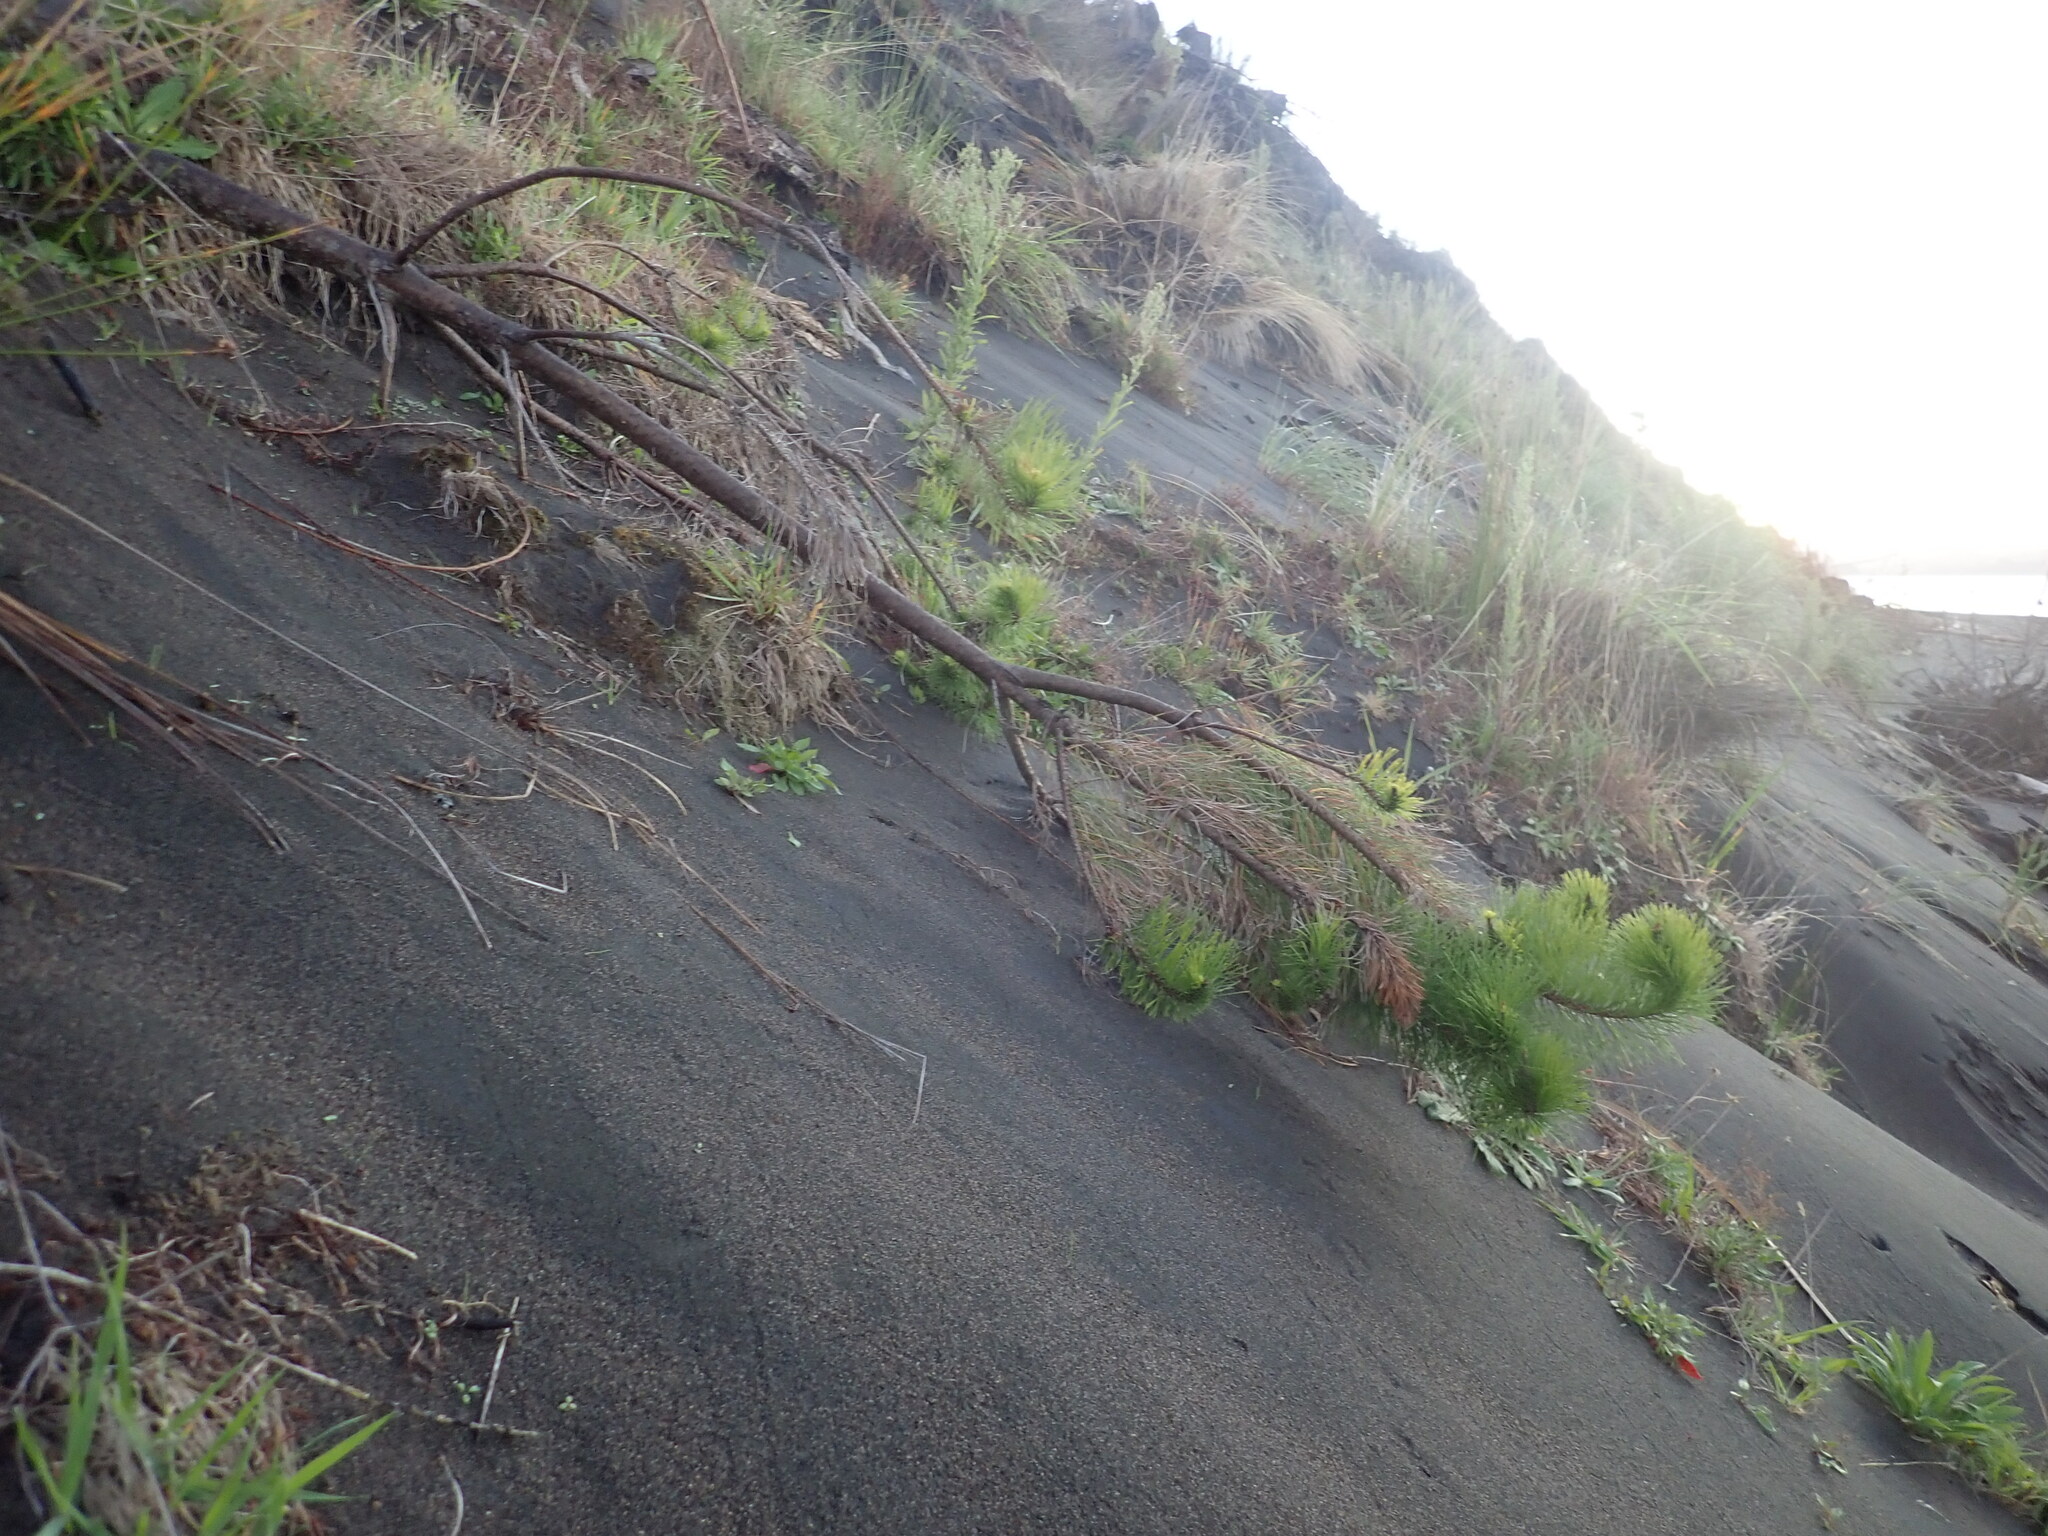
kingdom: Plantae
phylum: Tracheophyta
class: Pinopsida
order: Pinales
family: Pinaceae
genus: Pinus
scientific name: Pinus radiata
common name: Monterey pine
